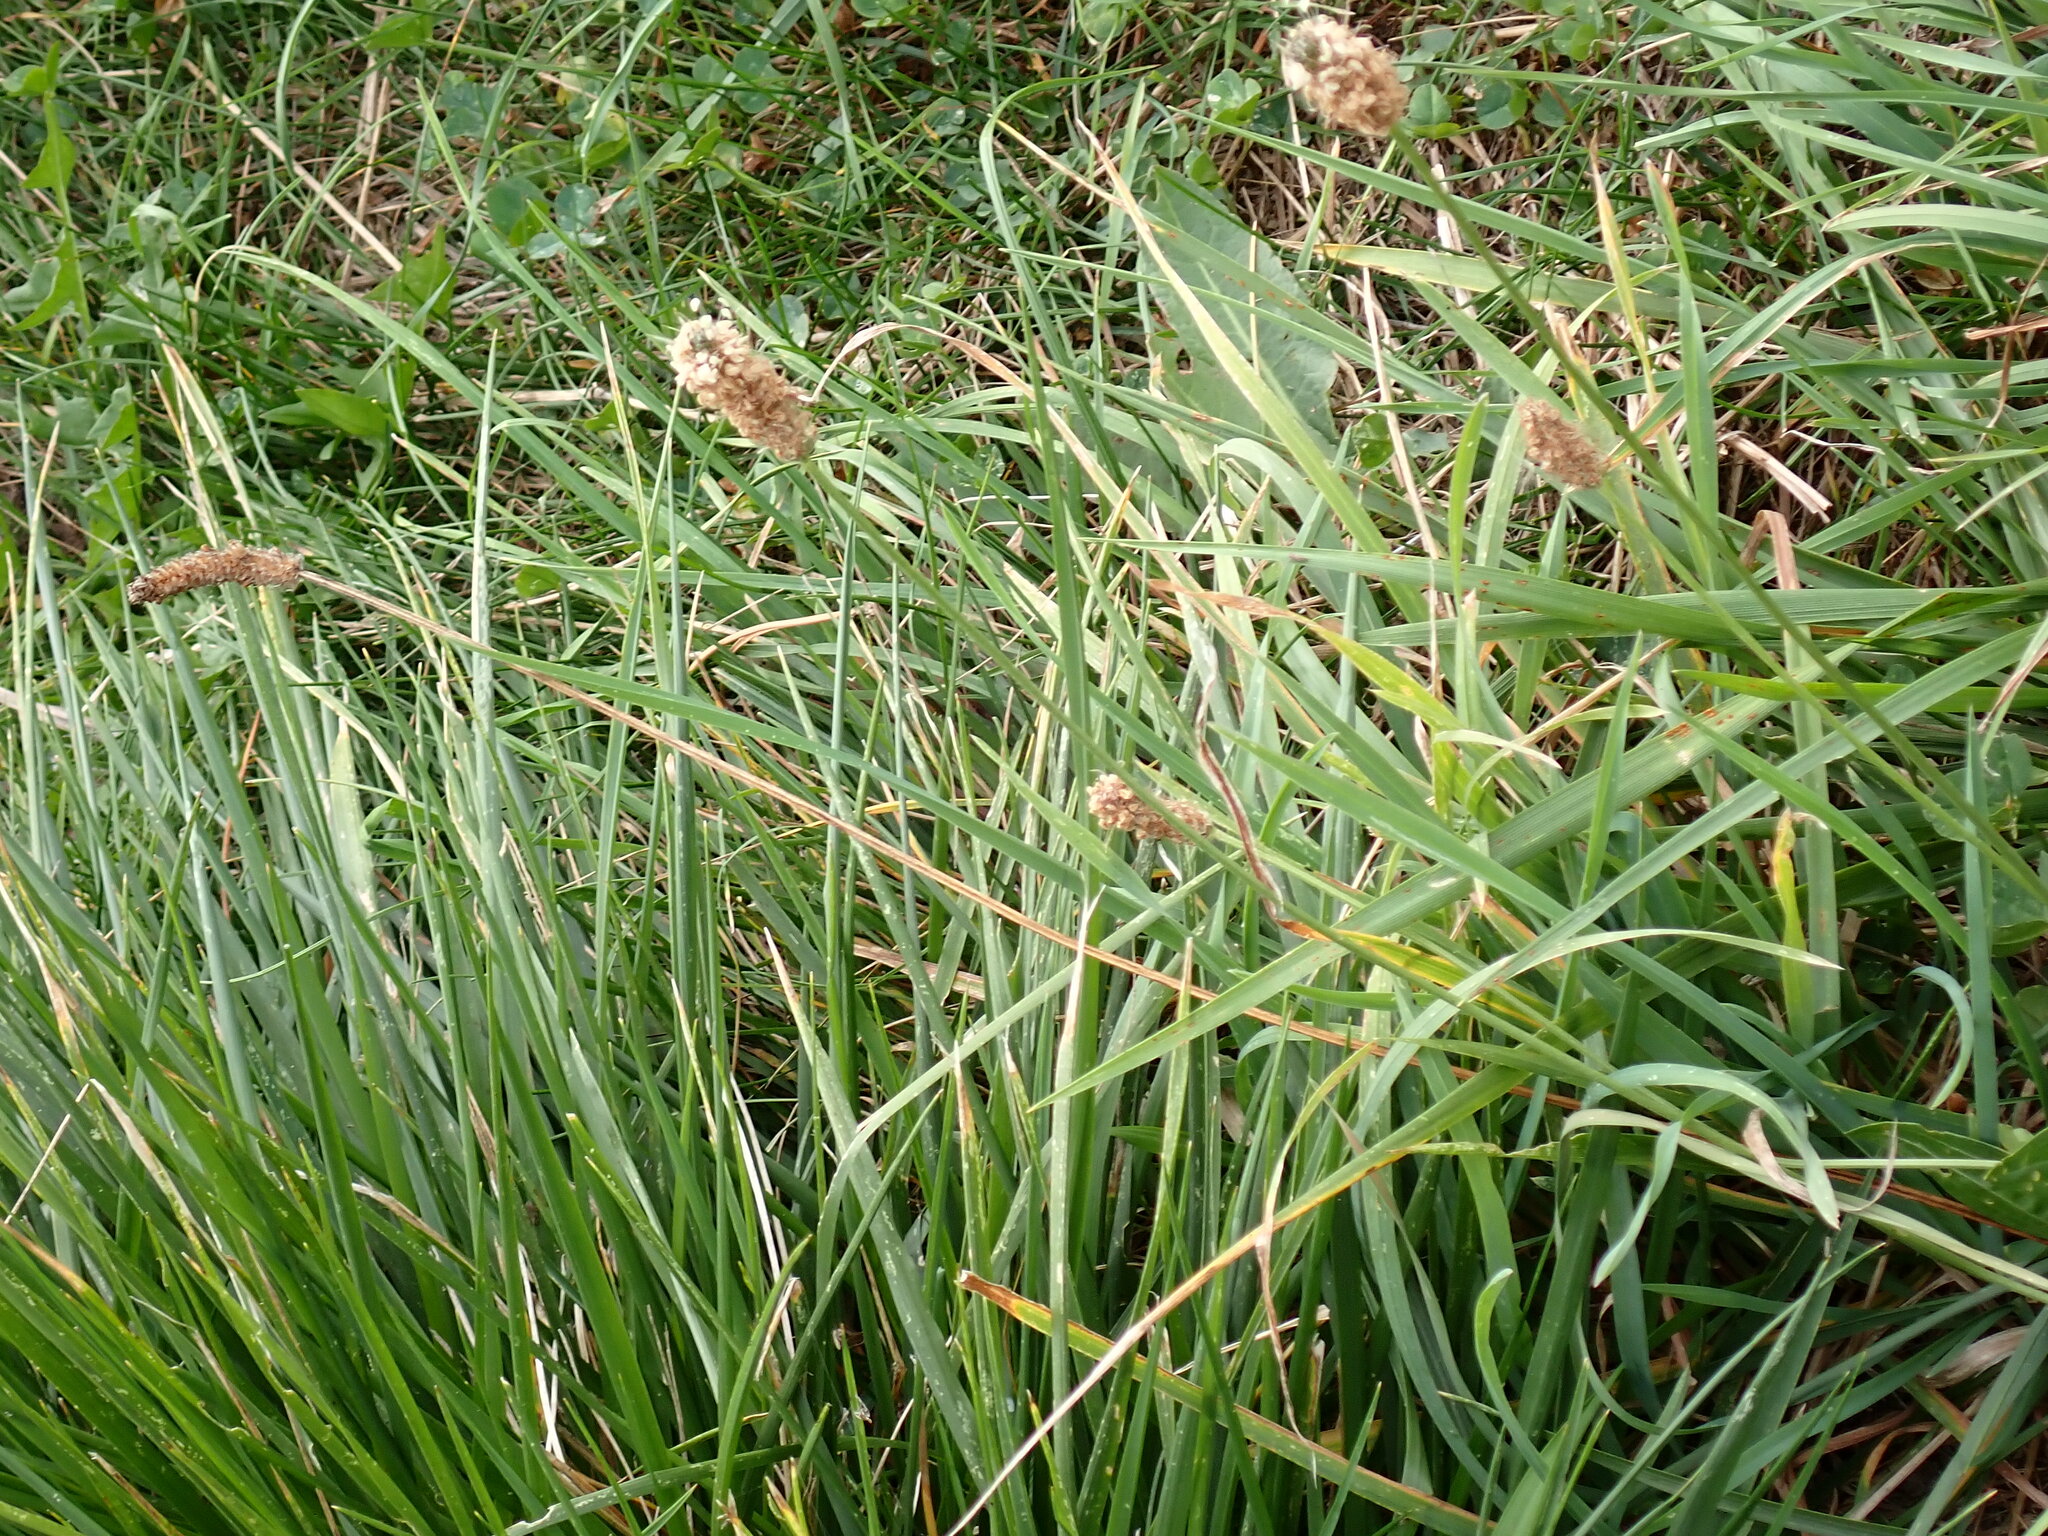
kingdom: Plantae
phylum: Tracheophyta
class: Magnoliopsida
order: Lamiales
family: Plantaginaceae
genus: Plantago
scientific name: Plantago lanceolata
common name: Ribwort plantain
